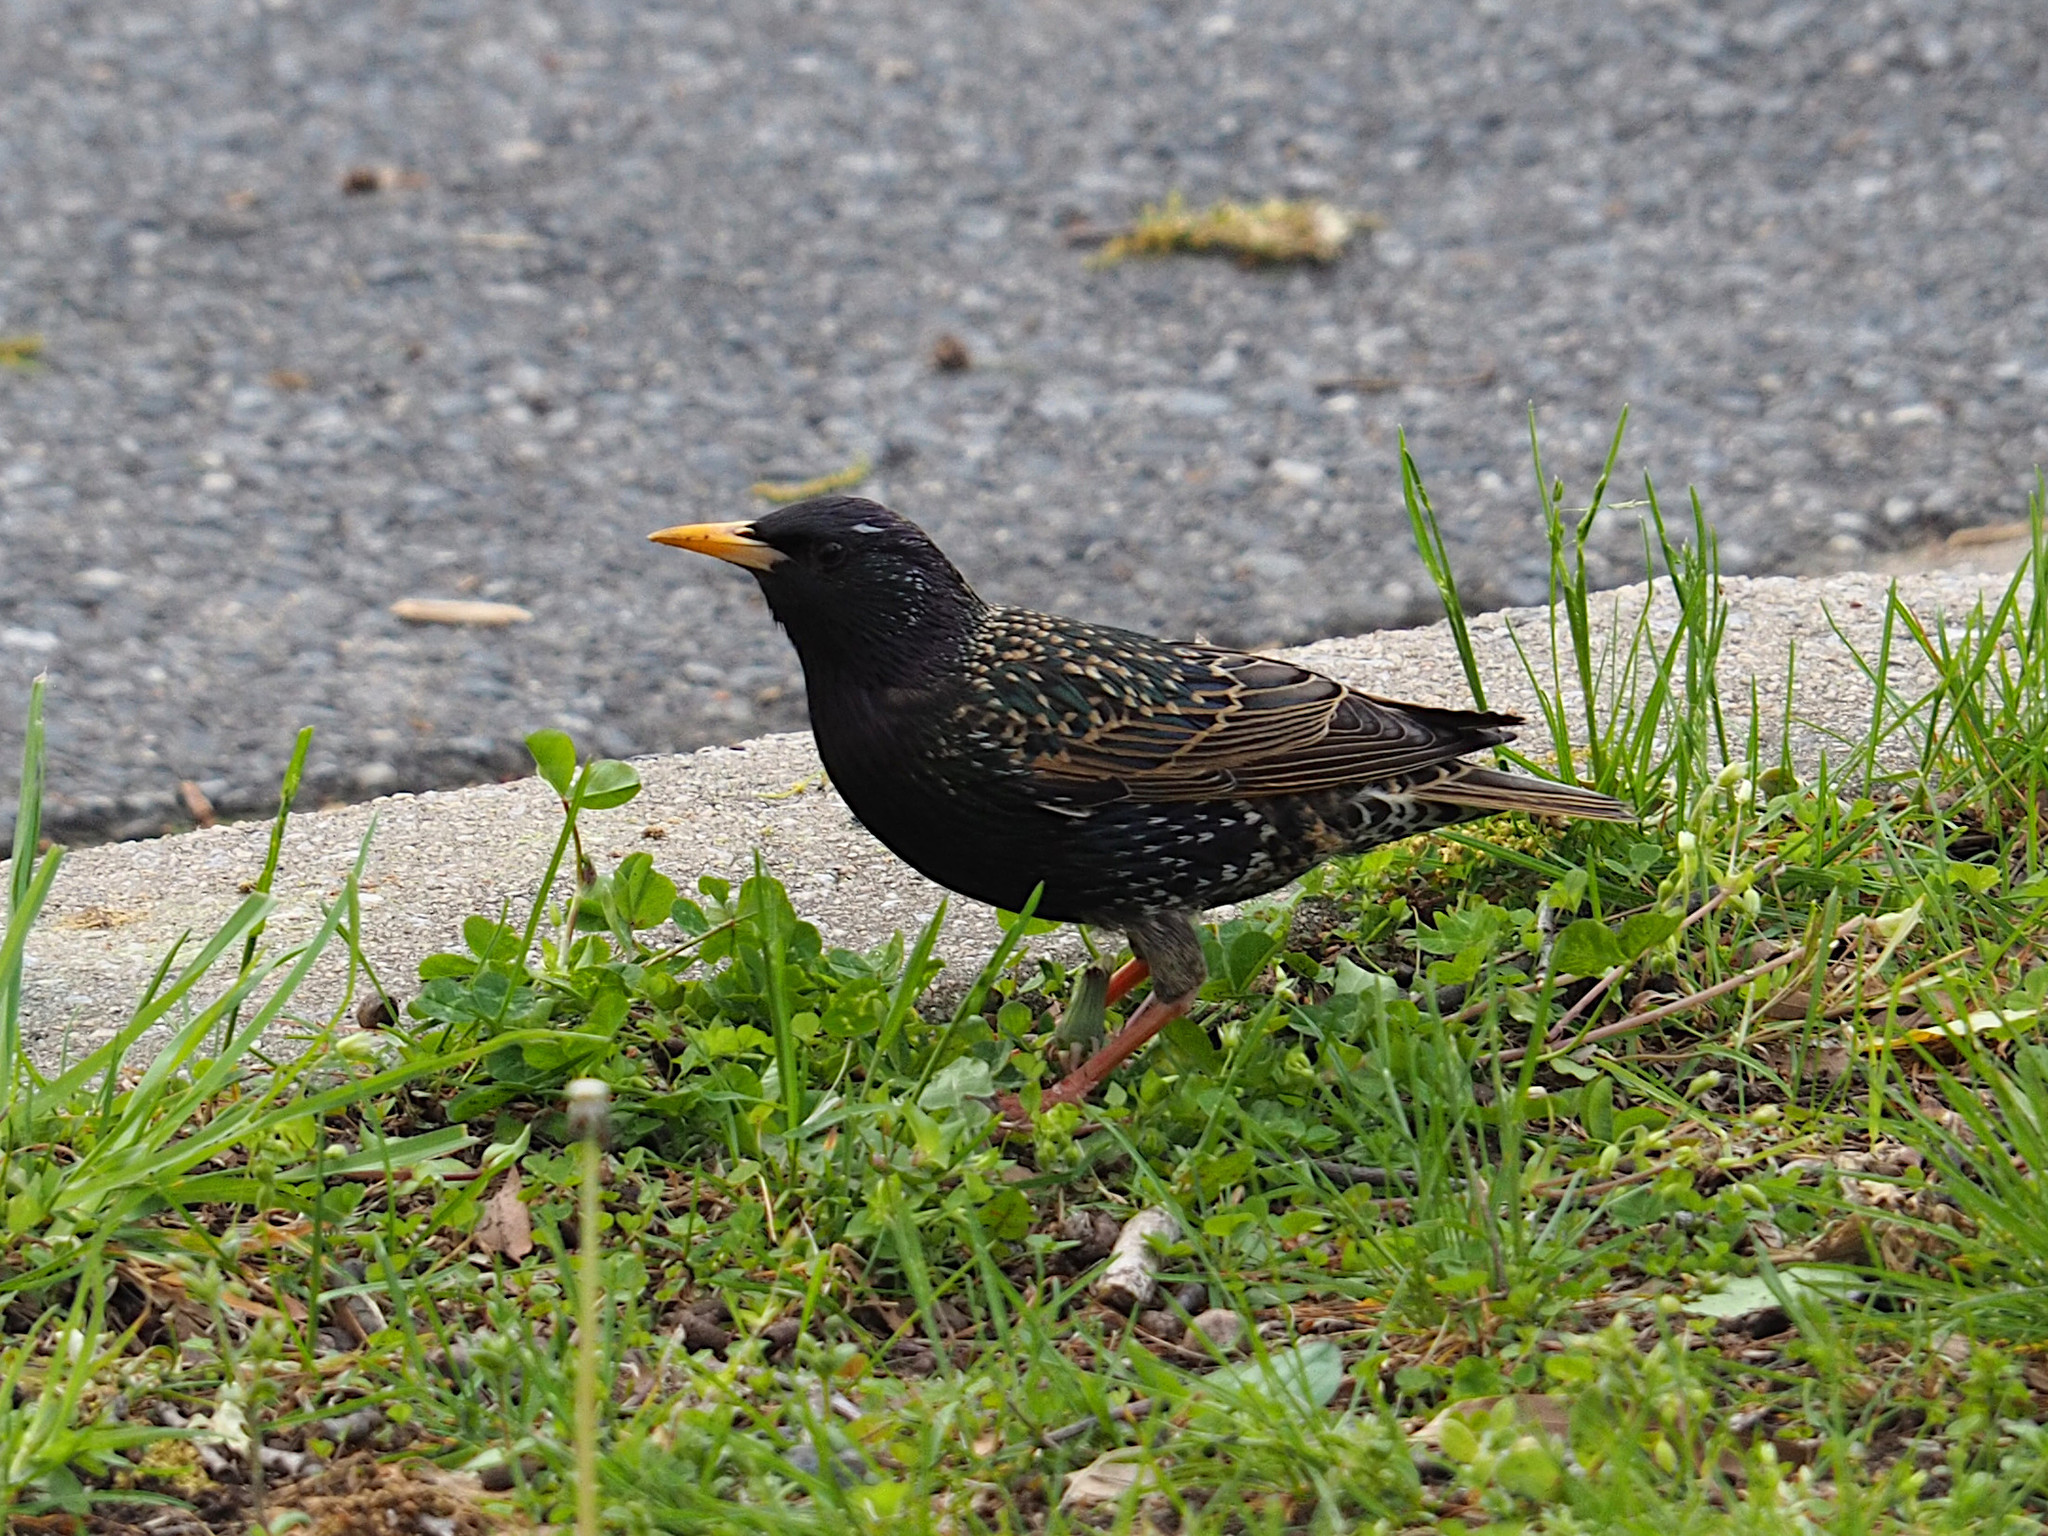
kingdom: Animalia
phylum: Chordata
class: Aves
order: Passeriformes
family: Sturnidae
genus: Sturnus
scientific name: Sturnus vulgaris
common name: Common starling
